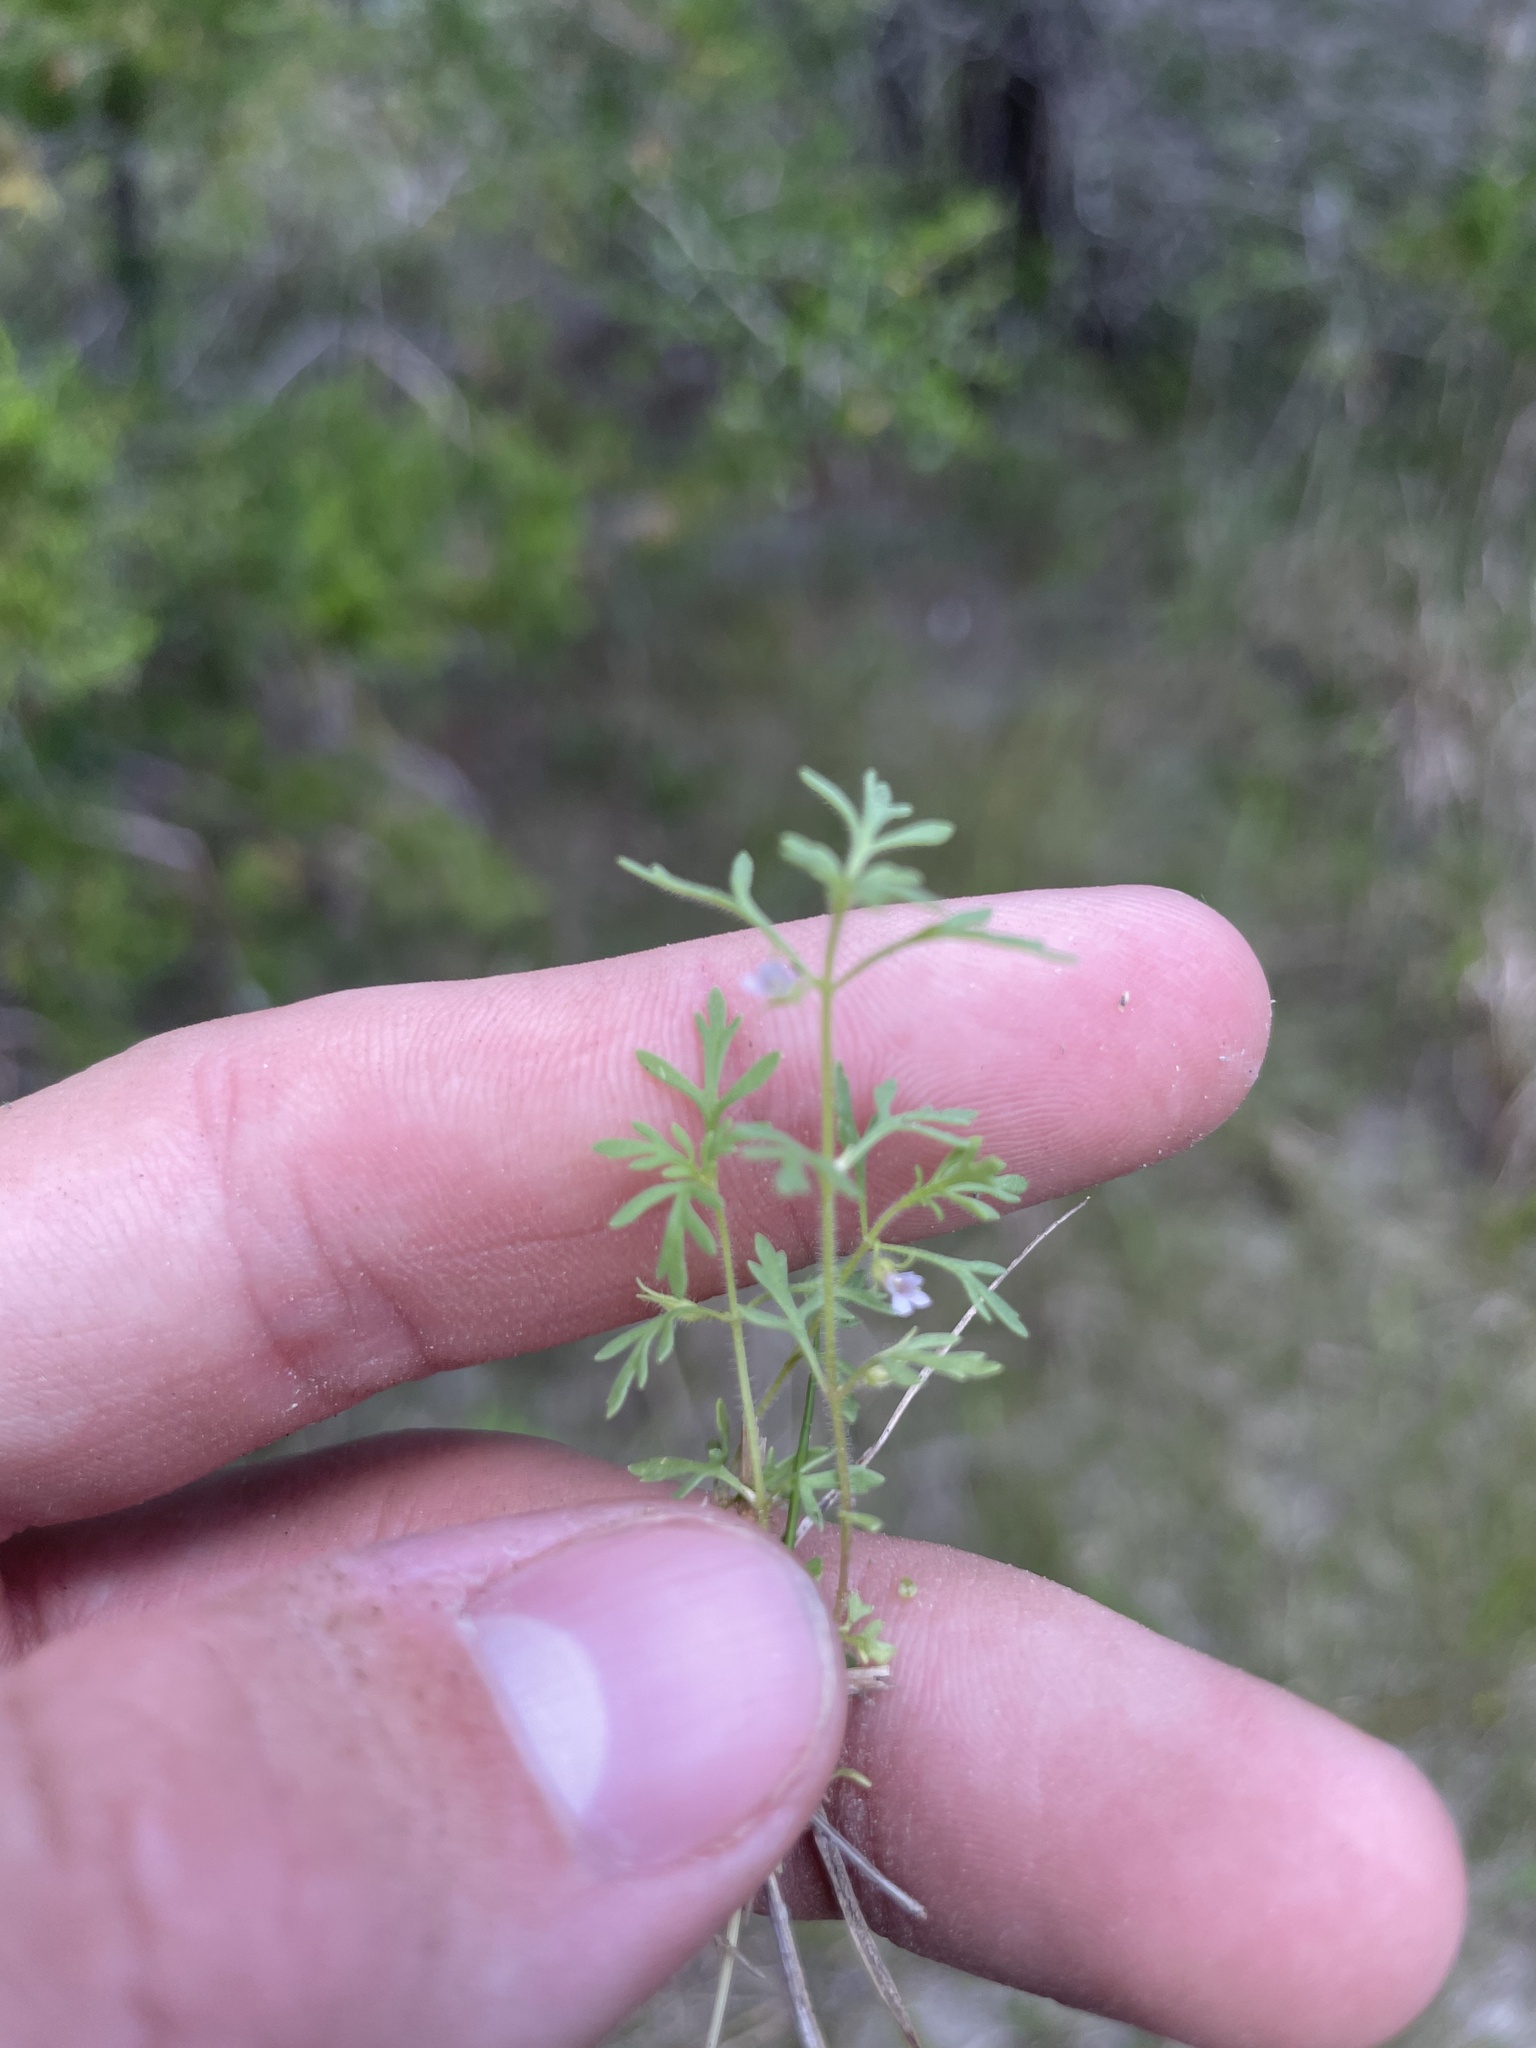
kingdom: Plantae
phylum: Tracheophyta
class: Magnoliopsida
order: Lamiales
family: Plantaginaceae
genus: Leucospora
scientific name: Leucospora multifida
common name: Narrow-leaf paleseed
